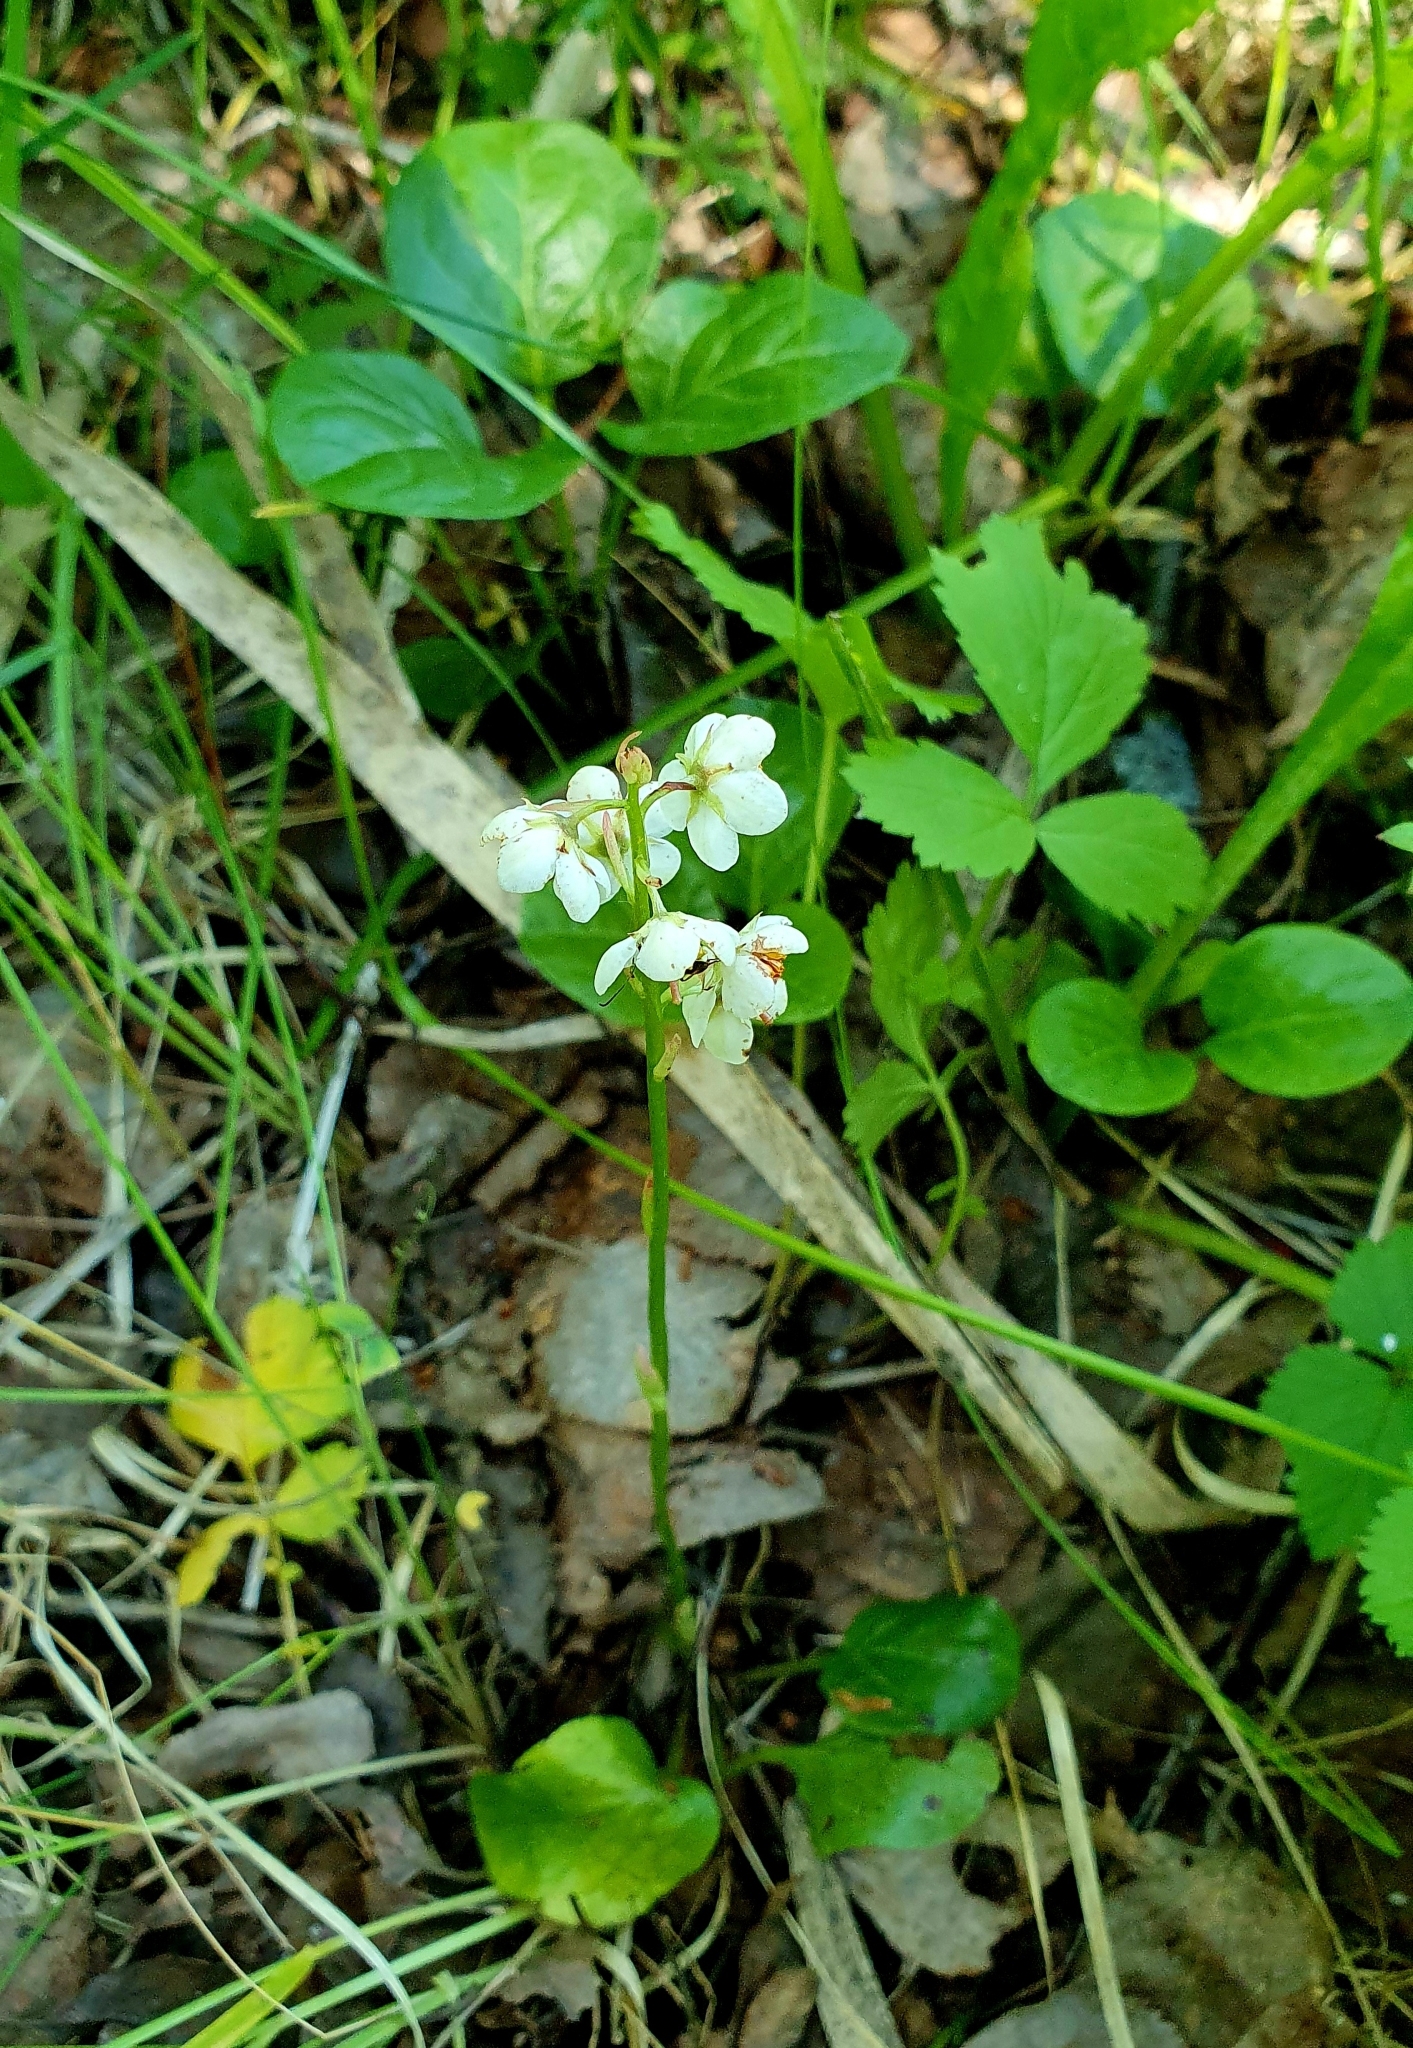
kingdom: Plantae
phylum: Tracheophyta
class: Magnoliopsida
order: Ericales
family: Ericaceae
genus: Pyrola
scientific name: Pyrola rotundifolia
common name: Round-leaved wintergreen
